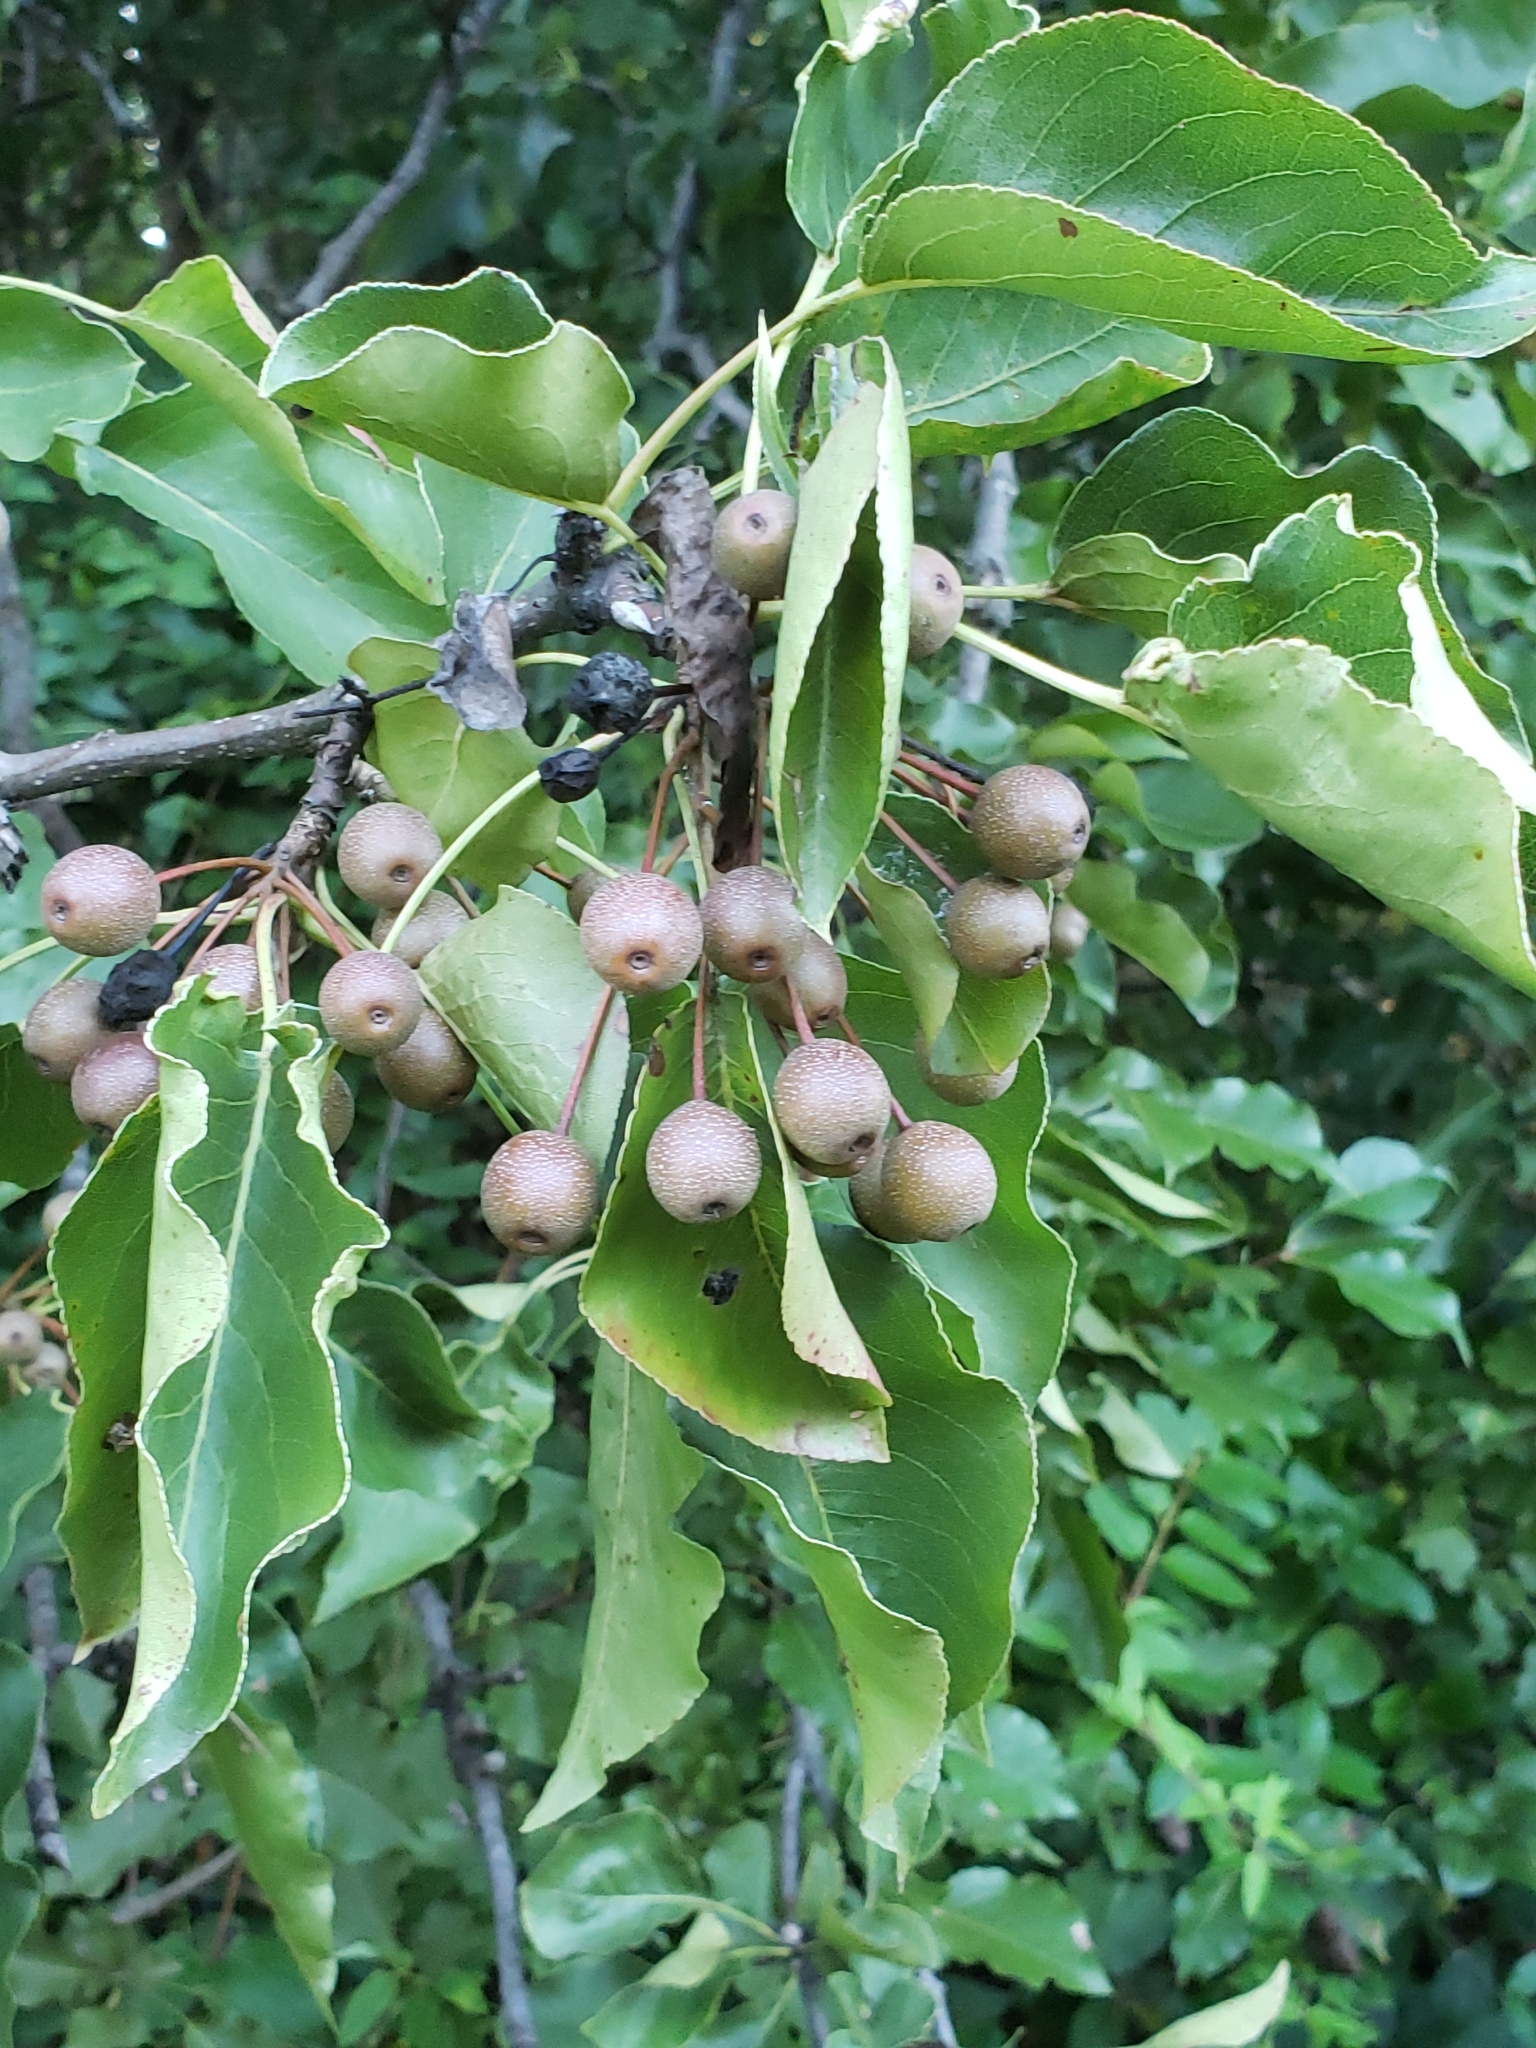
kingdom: Plantae
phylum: Tracheophyta
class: Magnoliopsida
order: Rosales
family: Rosaceae
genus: Pyrus
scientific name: Pyrus calleryana
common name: Callery pear
